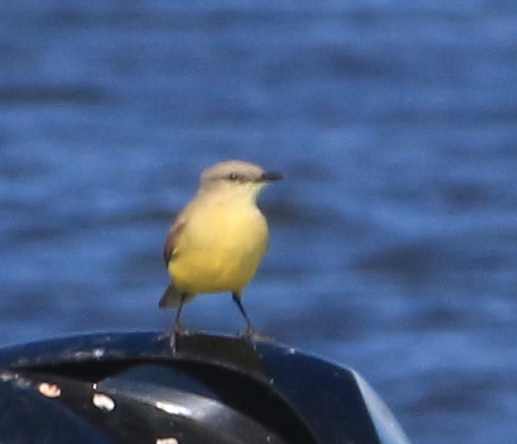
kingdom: Animalia
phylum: Chordata
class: Aves
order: Passeriformes
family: Tyrannidae
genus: Machetornis
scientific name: Machetornis rixosa
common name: Cattle tyrant
